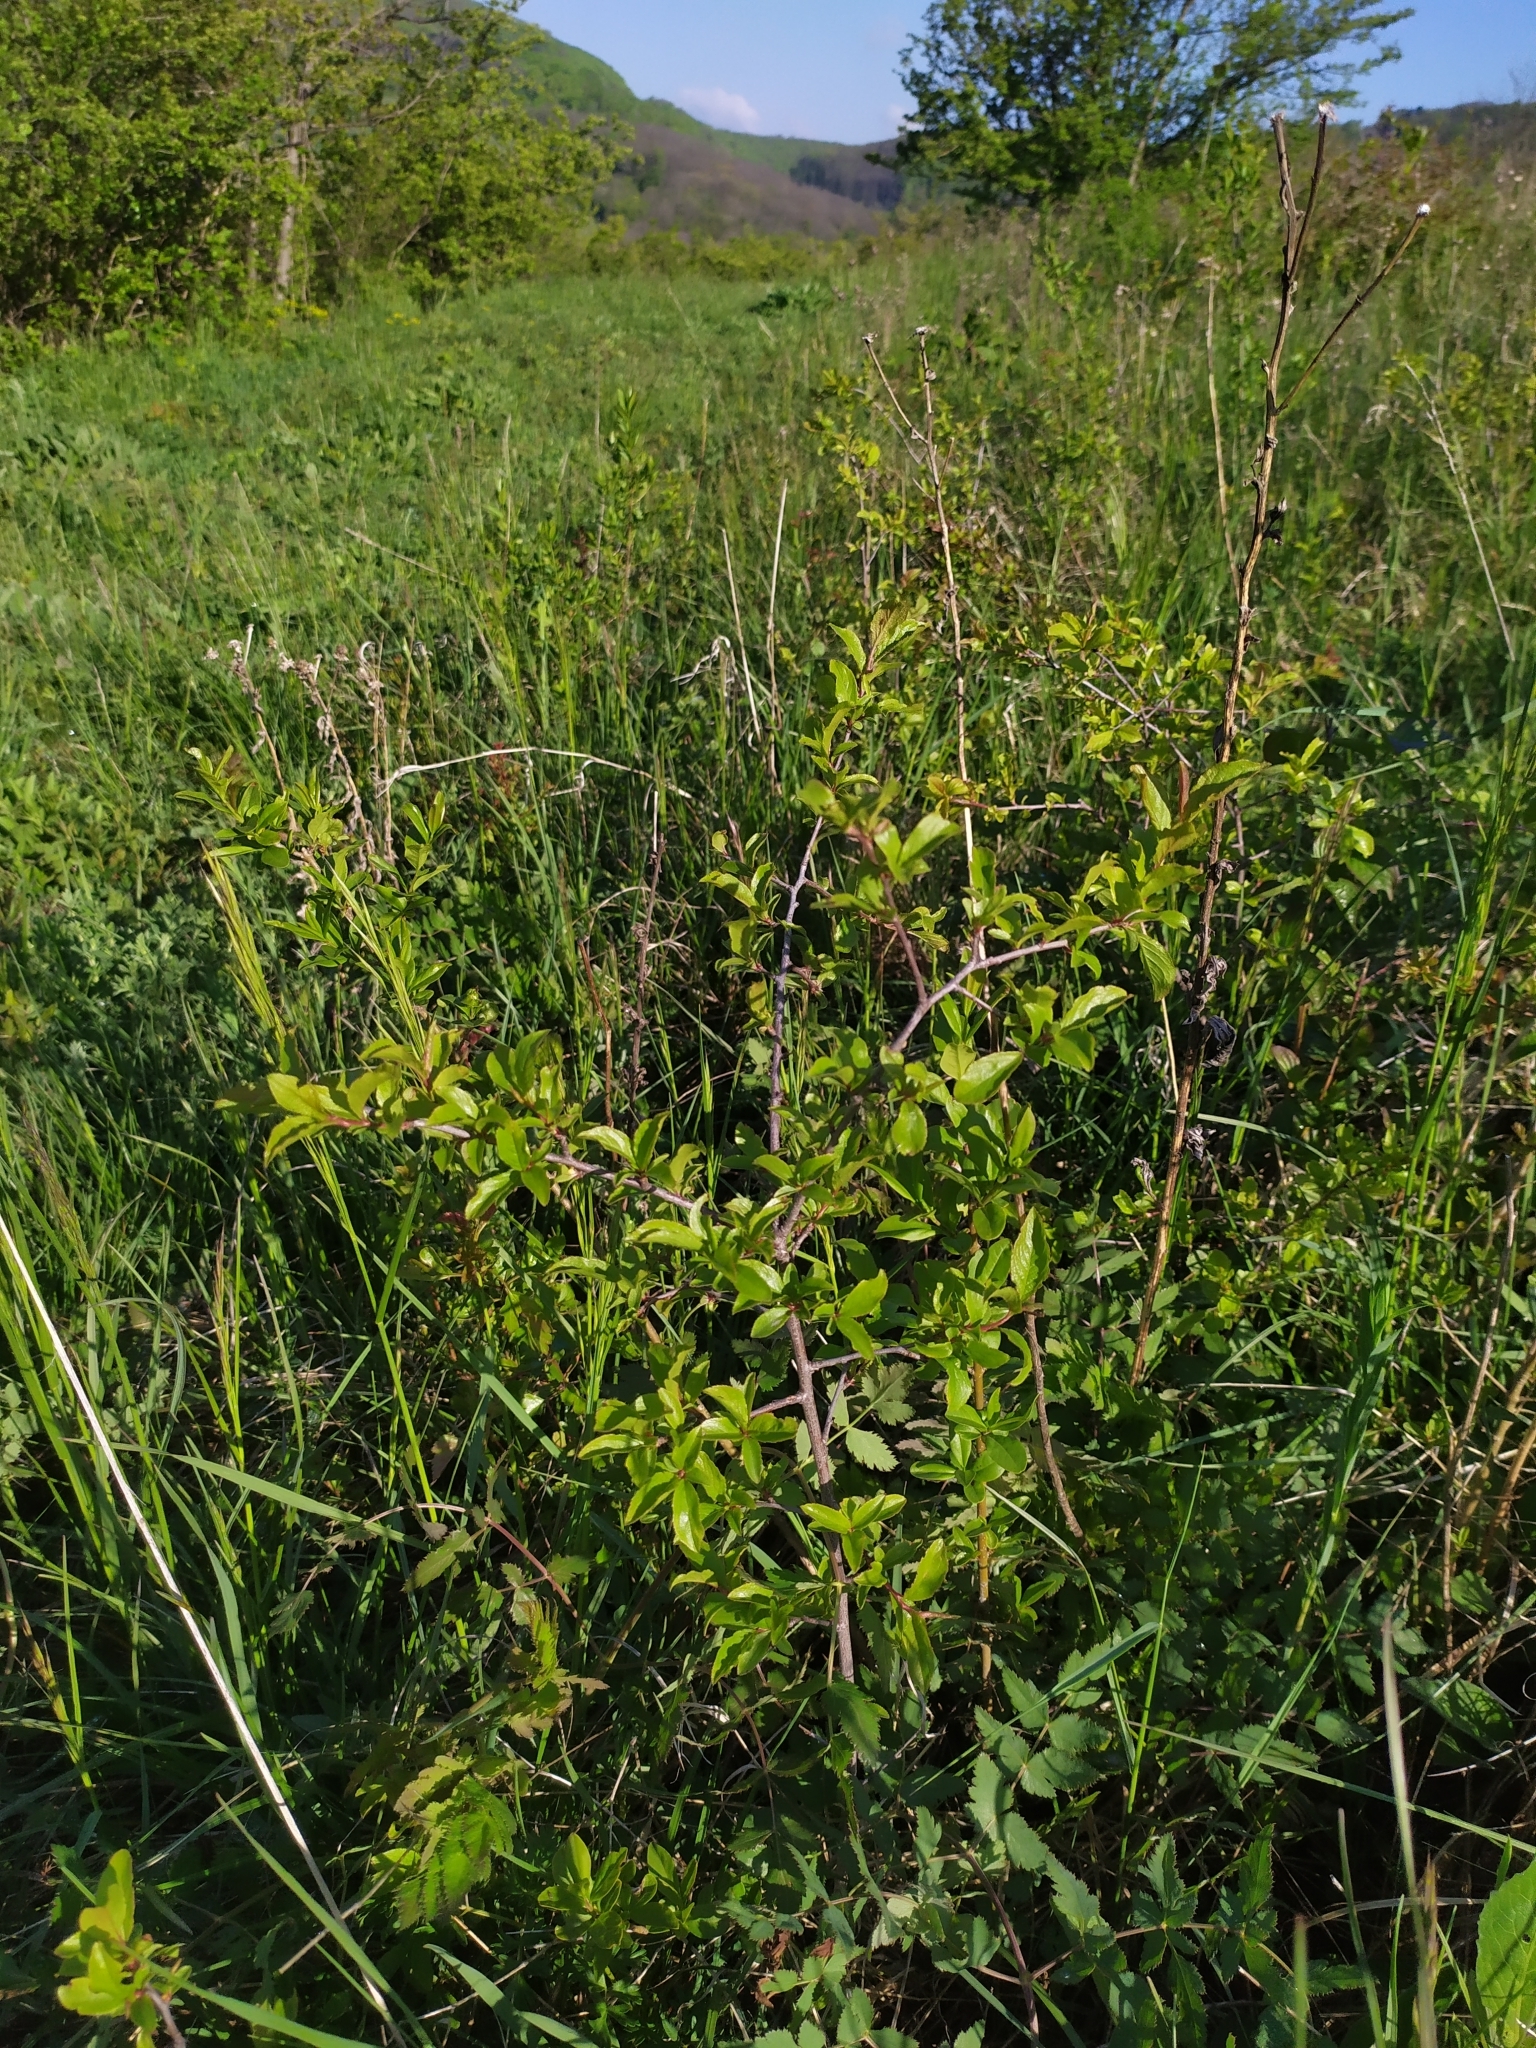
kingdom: Plantae
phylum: Tracheophyta
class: Magnoliopsida
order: Rosales
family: Rosaceae
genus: Prunus
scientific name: Prunus spinosa
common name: Blackthorn
